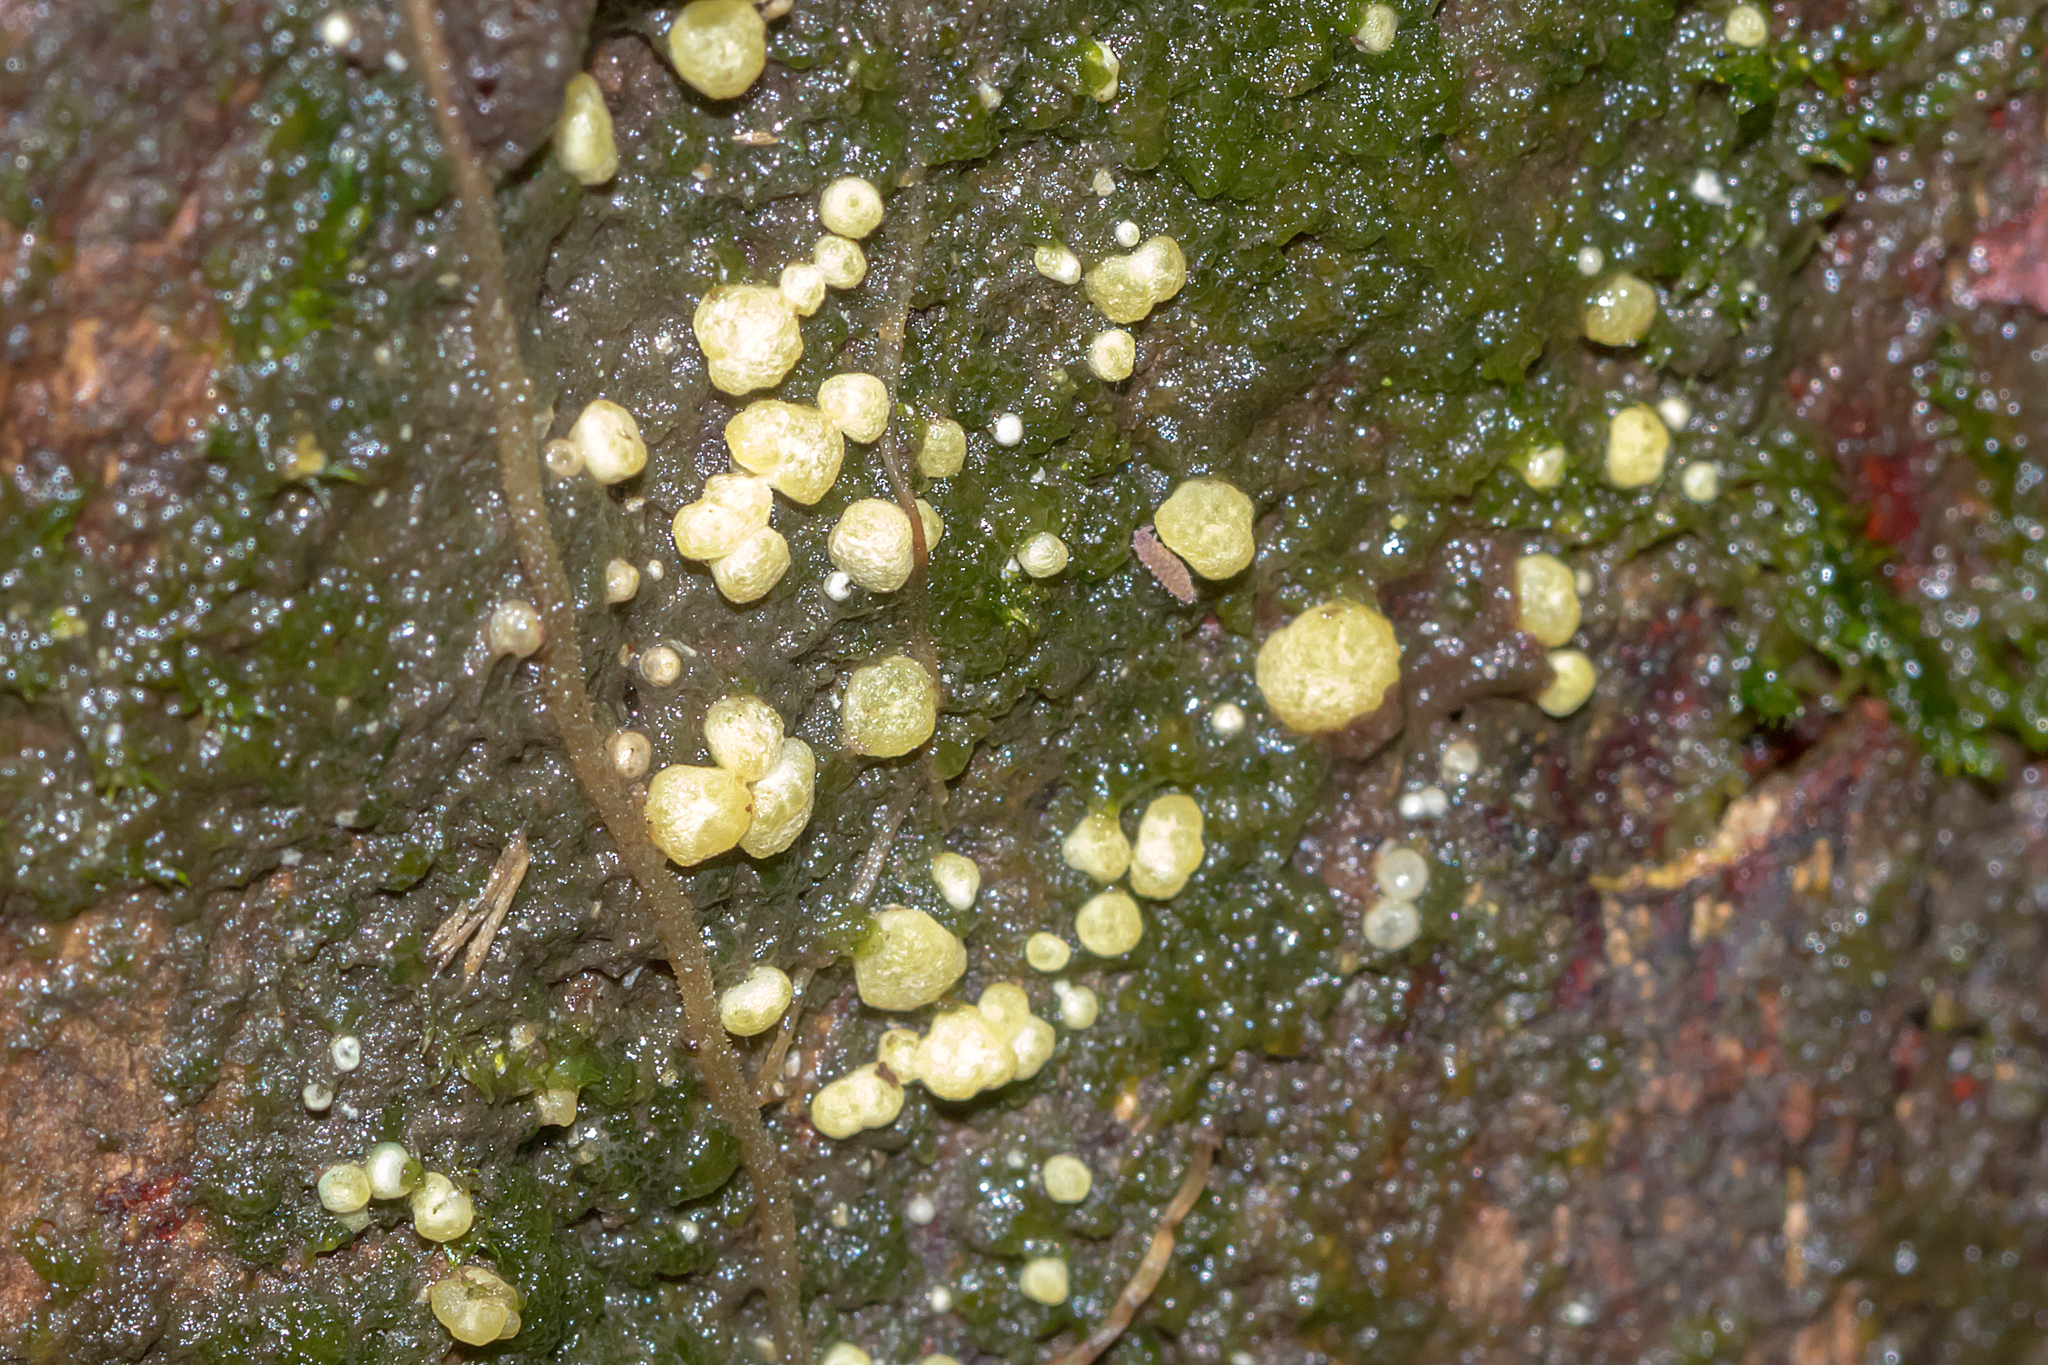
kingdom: Fungi
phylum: Ascomycota
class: Sordariomycetes
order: Hypocreales
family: Hypocreaceae
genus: Trichoderma
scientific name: Trichoderma gelatinosum
